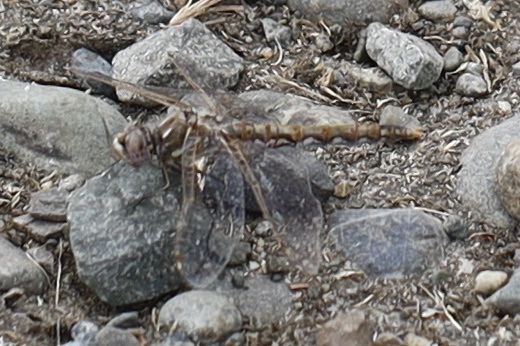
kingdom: Animalia
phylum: Arthropoda
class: Insecta
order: Odonata
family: Libellulidae
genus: Sympetrum
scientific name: Sympetrum corruptum
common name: Variegated meadowhawk
